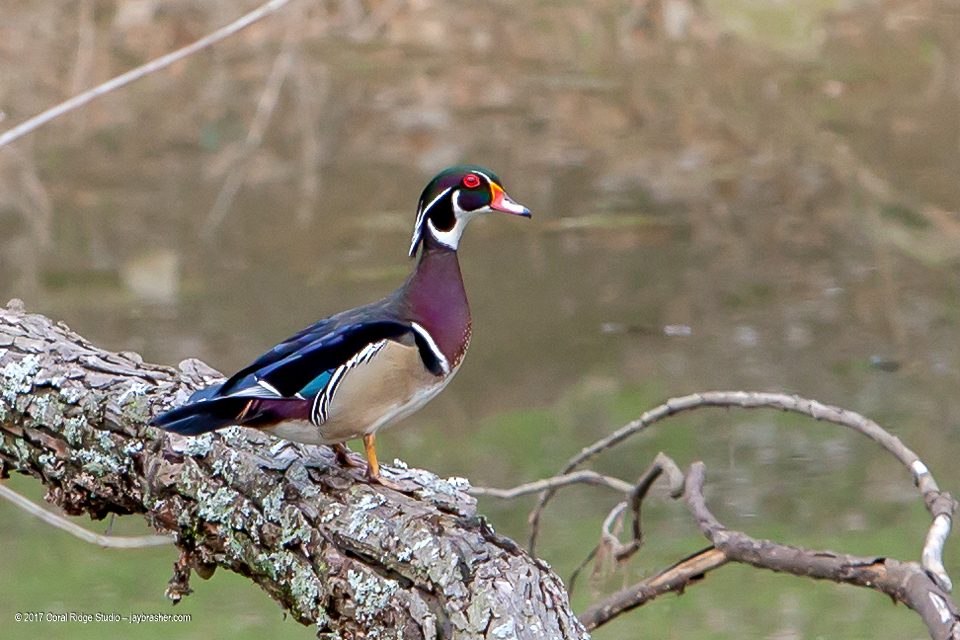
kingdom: Animalia
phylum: Chordata
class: Aves
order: Anseriformes
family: Anatidae
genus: Aix
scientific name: Aix sponsa
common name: Wood duck
